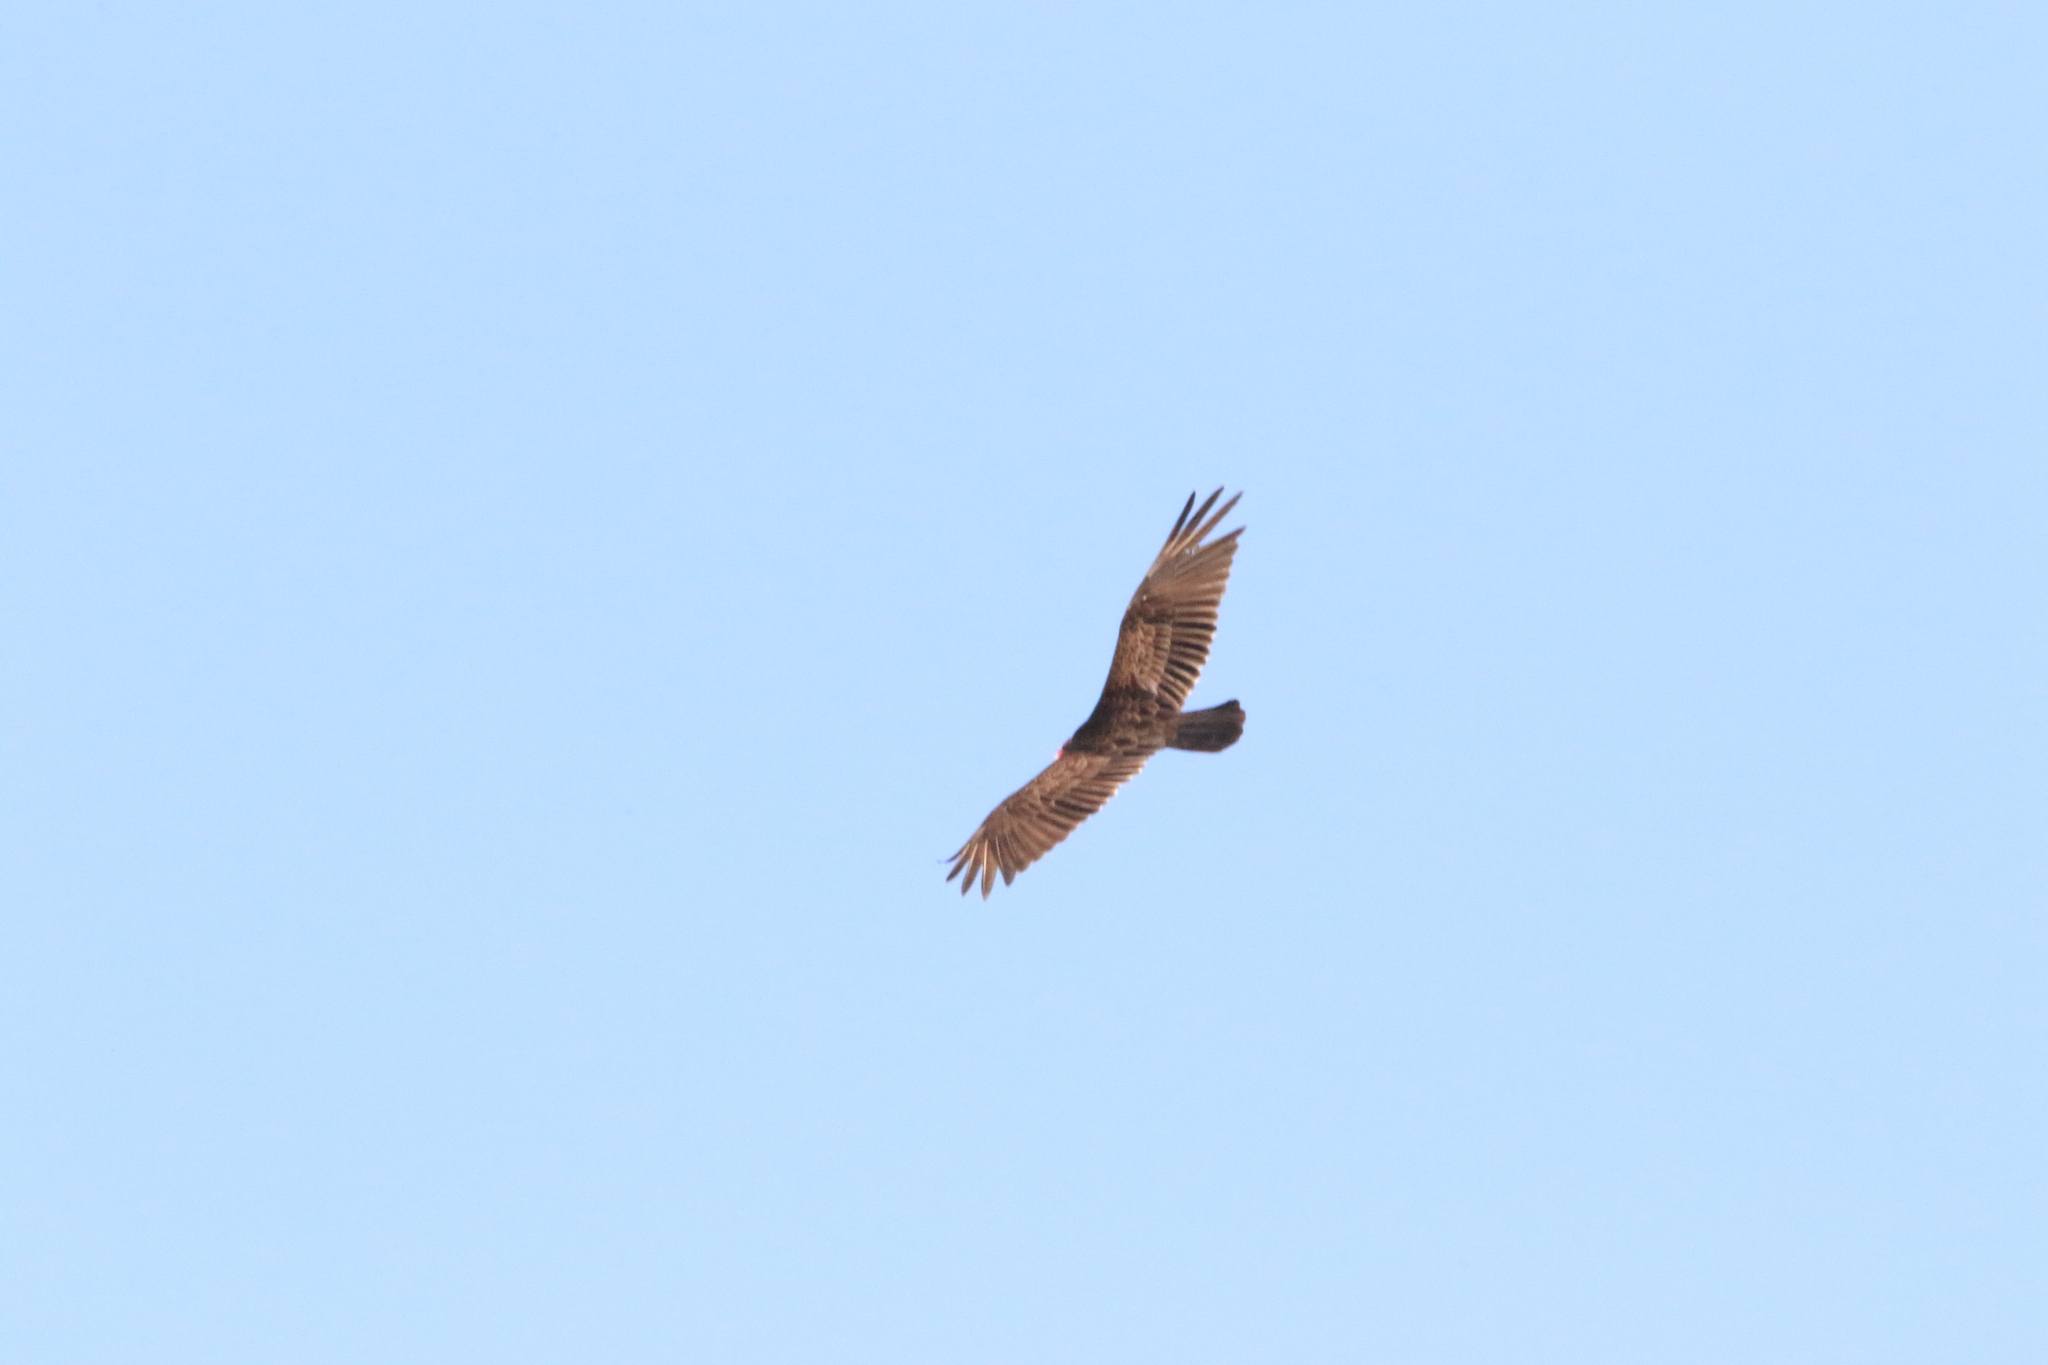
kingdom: Animalia
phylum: Chordata
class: Aves
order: Accipitriformes
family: Cathartidae
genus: Cathartes
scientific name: Cathartes aura
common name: Turkey vulture
